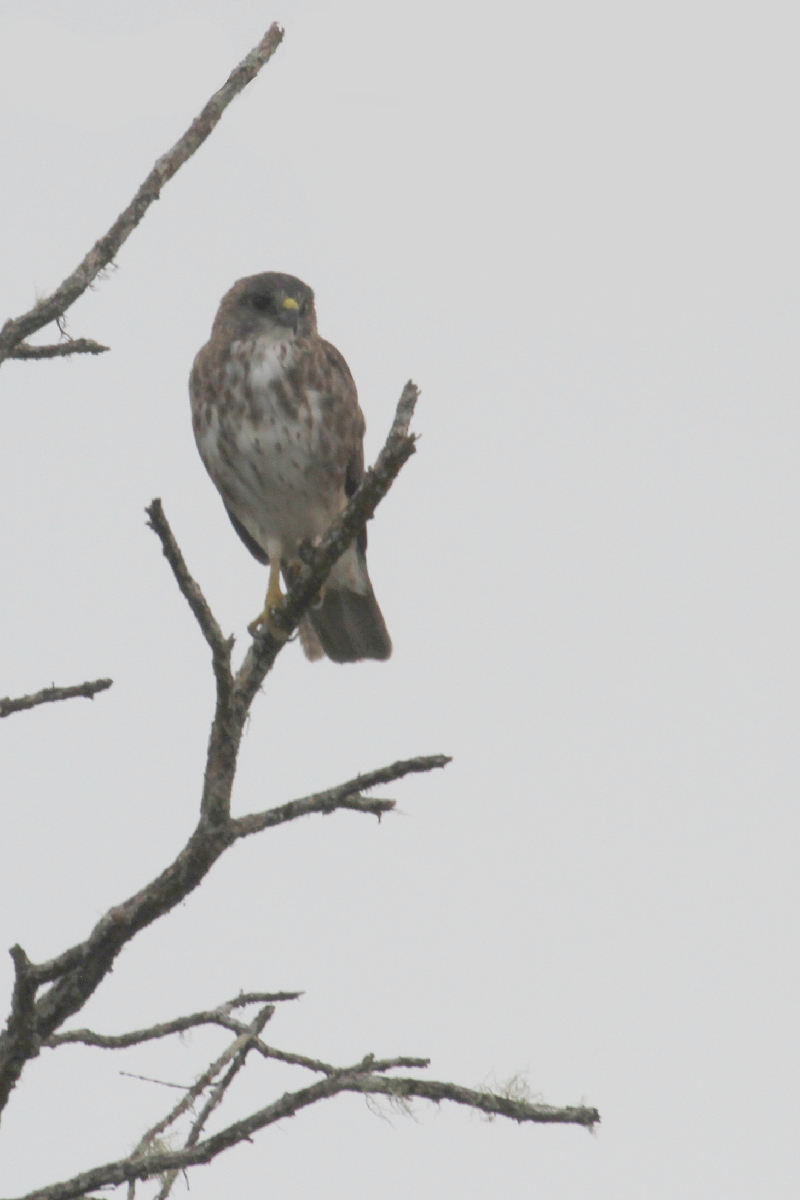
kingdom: Animalia
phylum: Chordata
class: Aves
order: Accipitriformes
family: Accipitridae
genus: Buteo
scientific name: Buteo solitarius
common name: Hawaiian hawk
